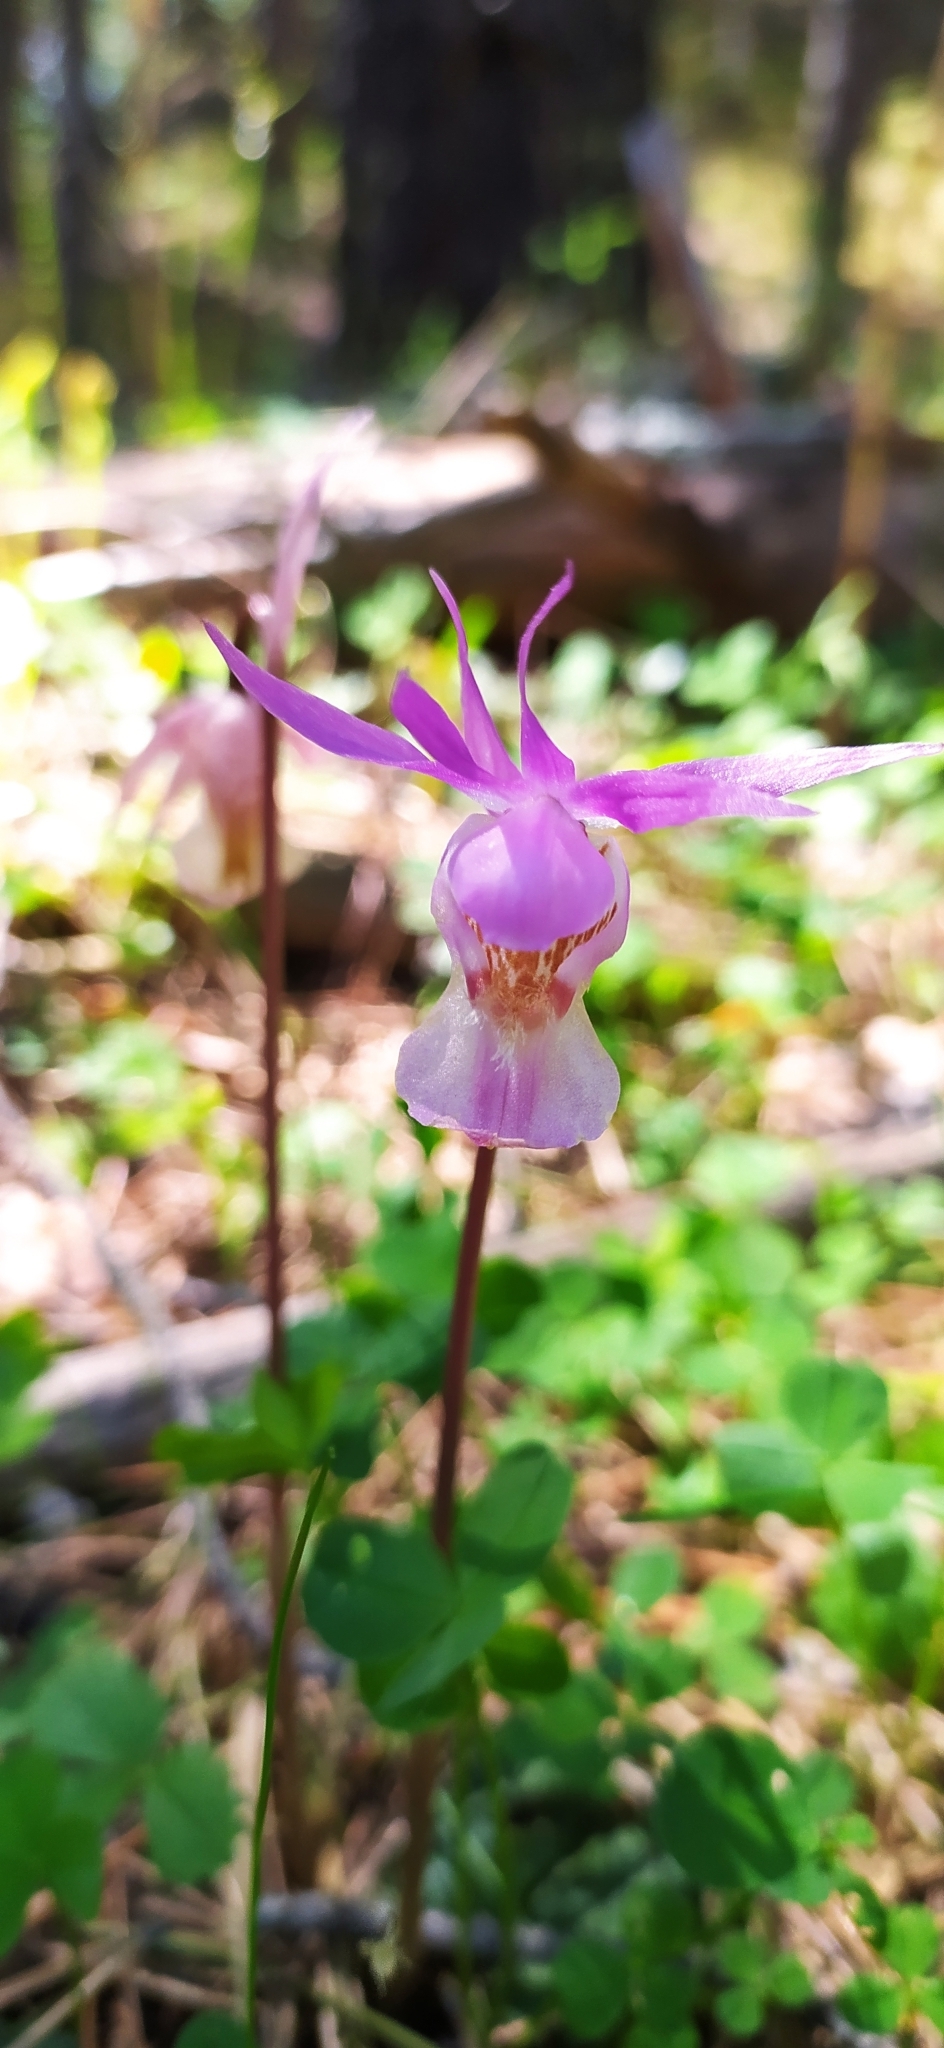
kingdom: Plantae
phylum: Tracheophyta
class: Liliopsida
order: Asparagales
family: Orchidaceae
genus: Calypso
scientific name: Calypso bulbosa
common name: Calypso
